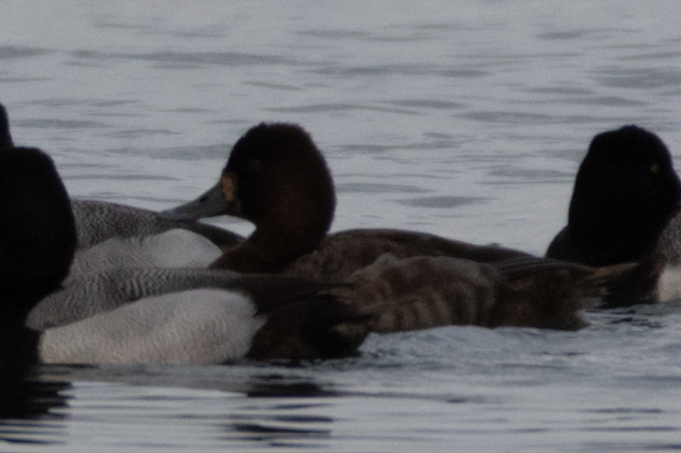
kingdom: Animalia
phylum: Chordata
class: Aves
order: Anseriformes
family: Anatidae
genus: Aythya
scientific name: Aythya affinis
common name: Lesser scaup
